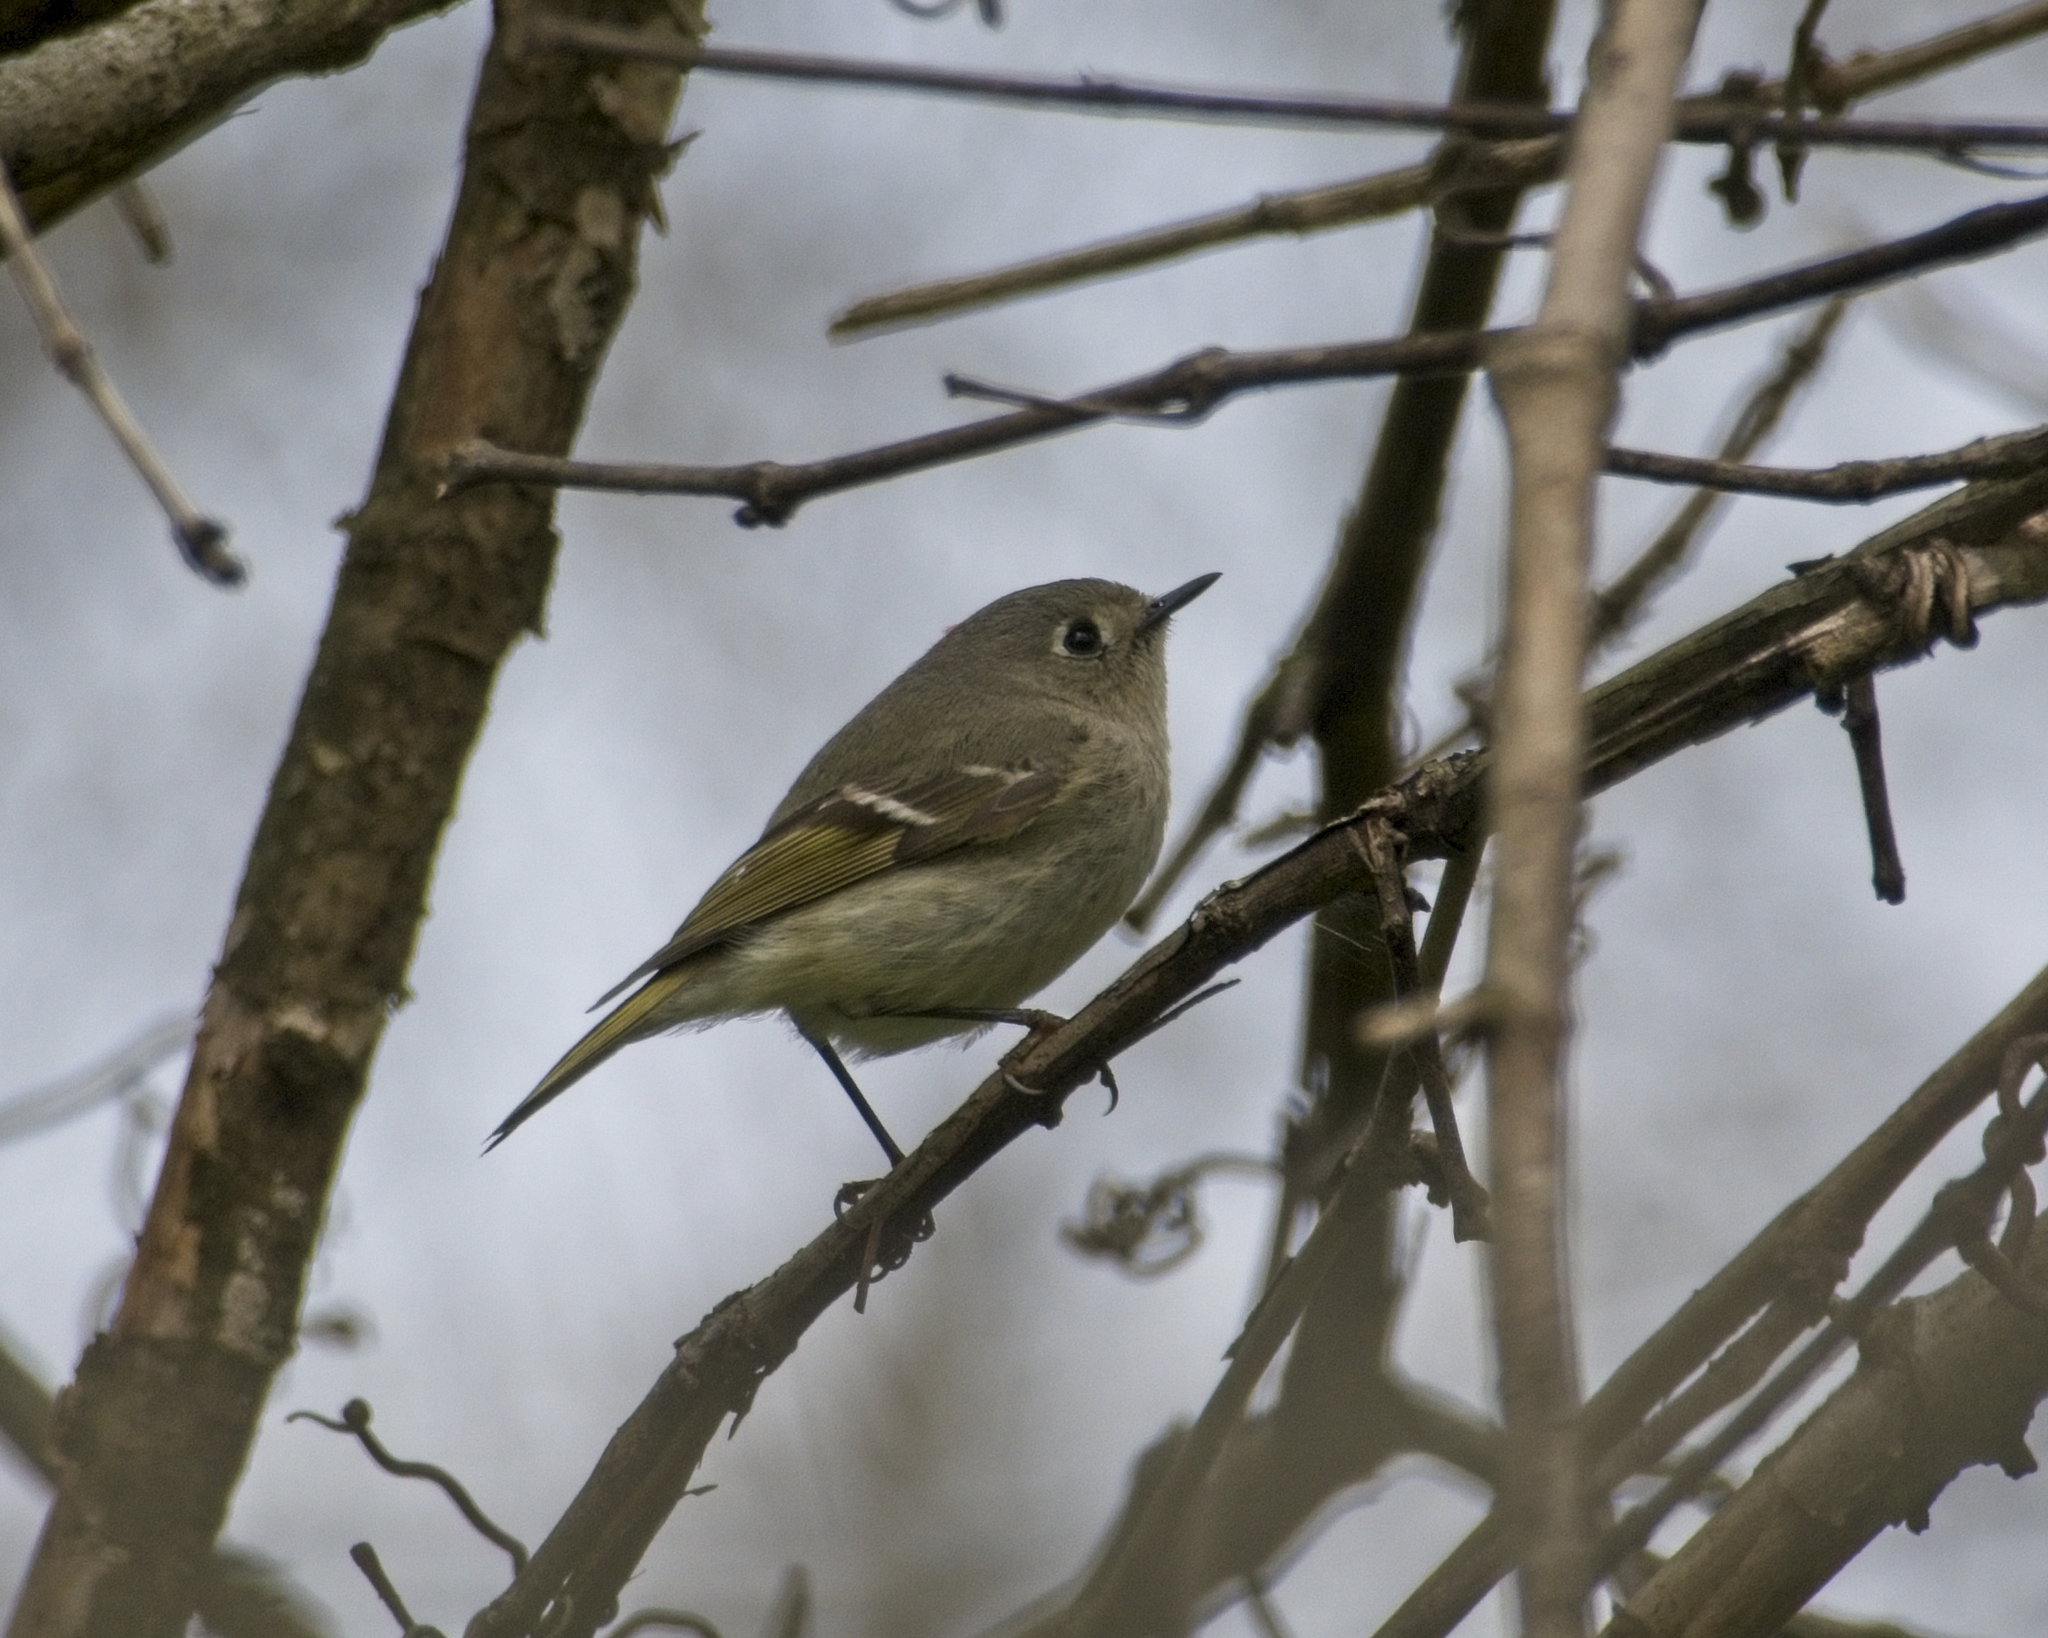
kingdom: Animalia
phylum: Chordata
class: Aves
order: Passeriformes
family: Regulidae
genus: Regulus
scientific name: Regulus calendula
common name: Ruby-crowned kinglet
